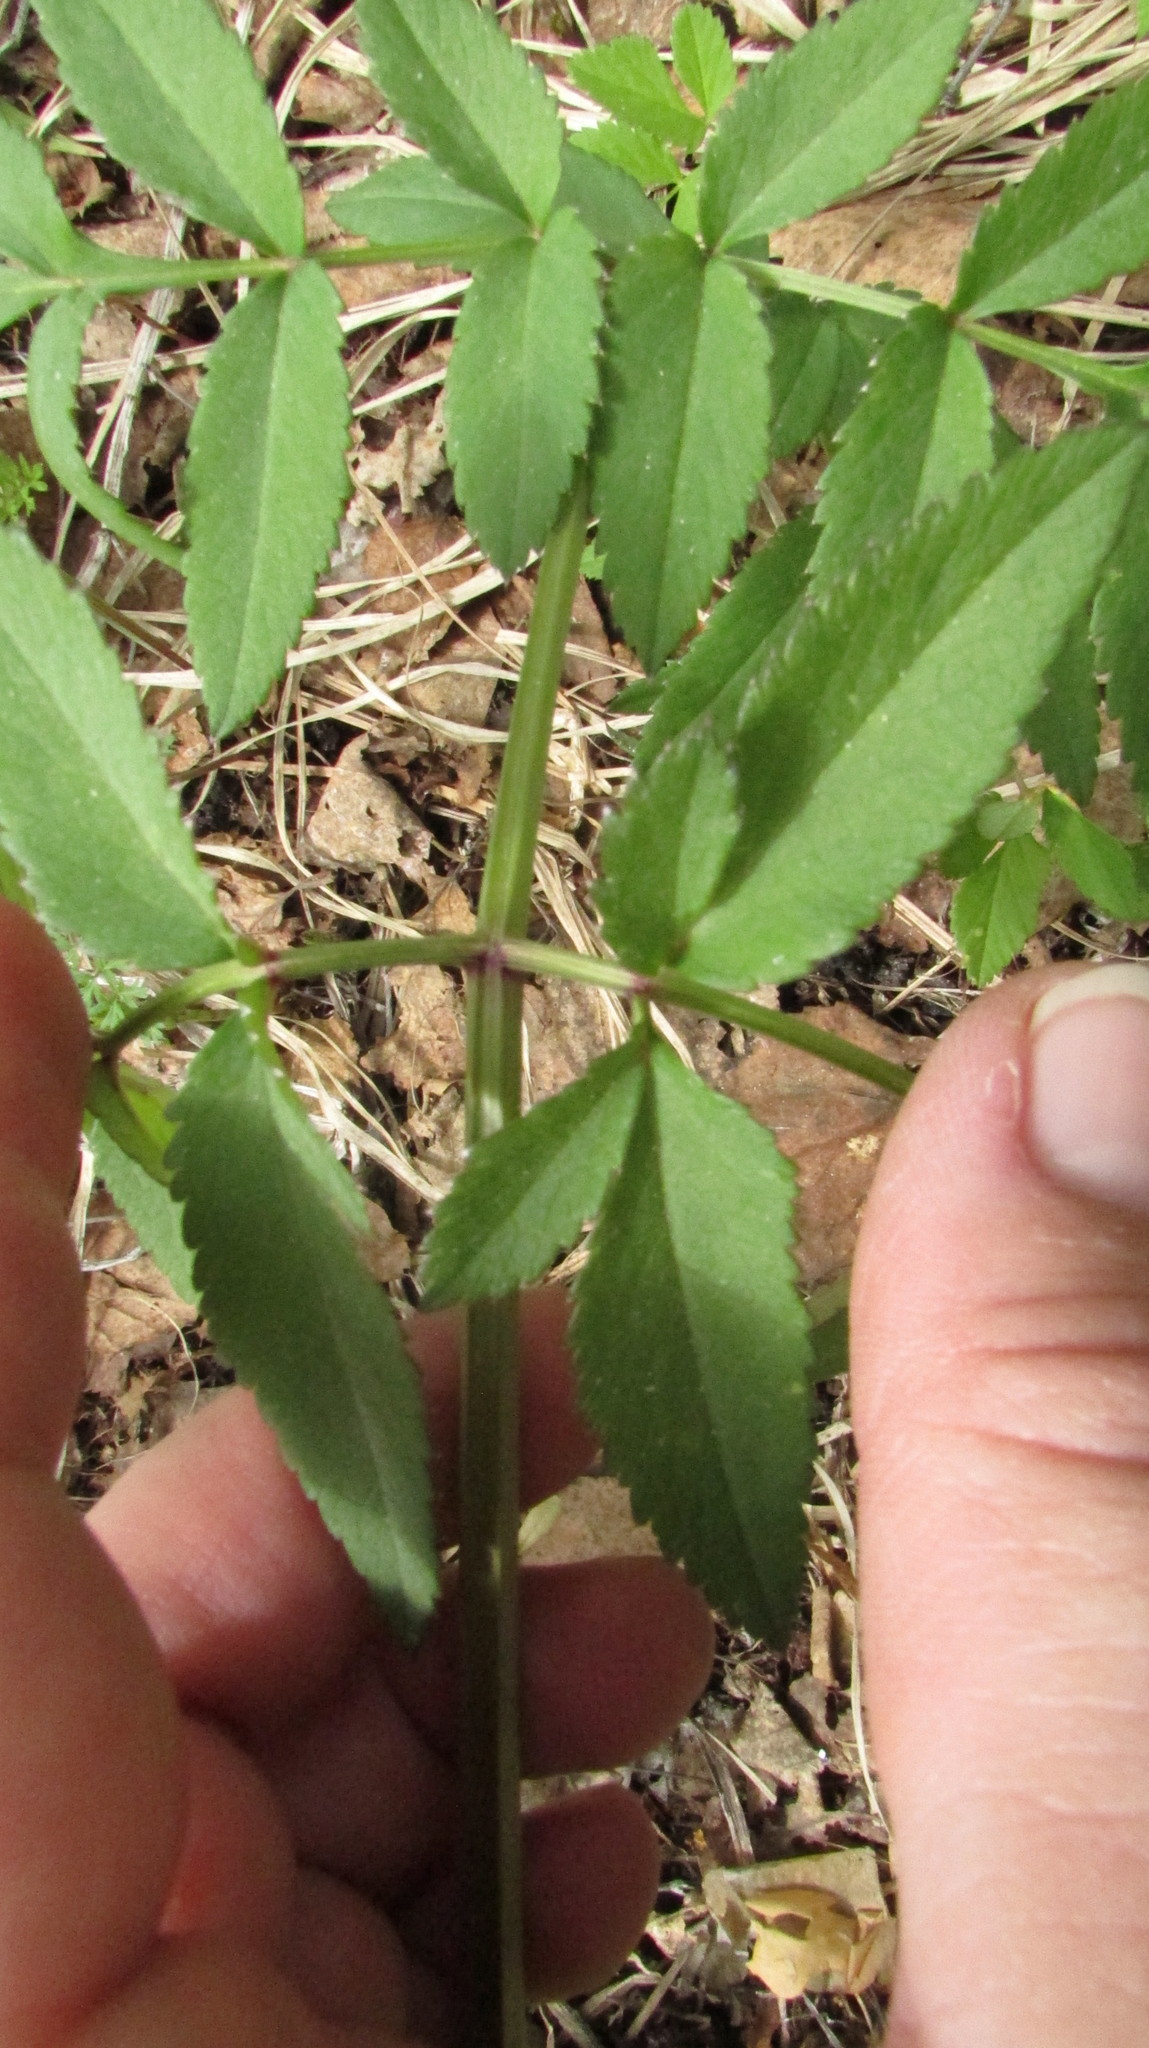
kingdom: Plantae
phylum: Tracheophyta
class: Magnoliopsida
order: Apiales
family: Apiaceae
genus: Angelica
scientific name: Angelica sylvestris
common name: Wild angelica
